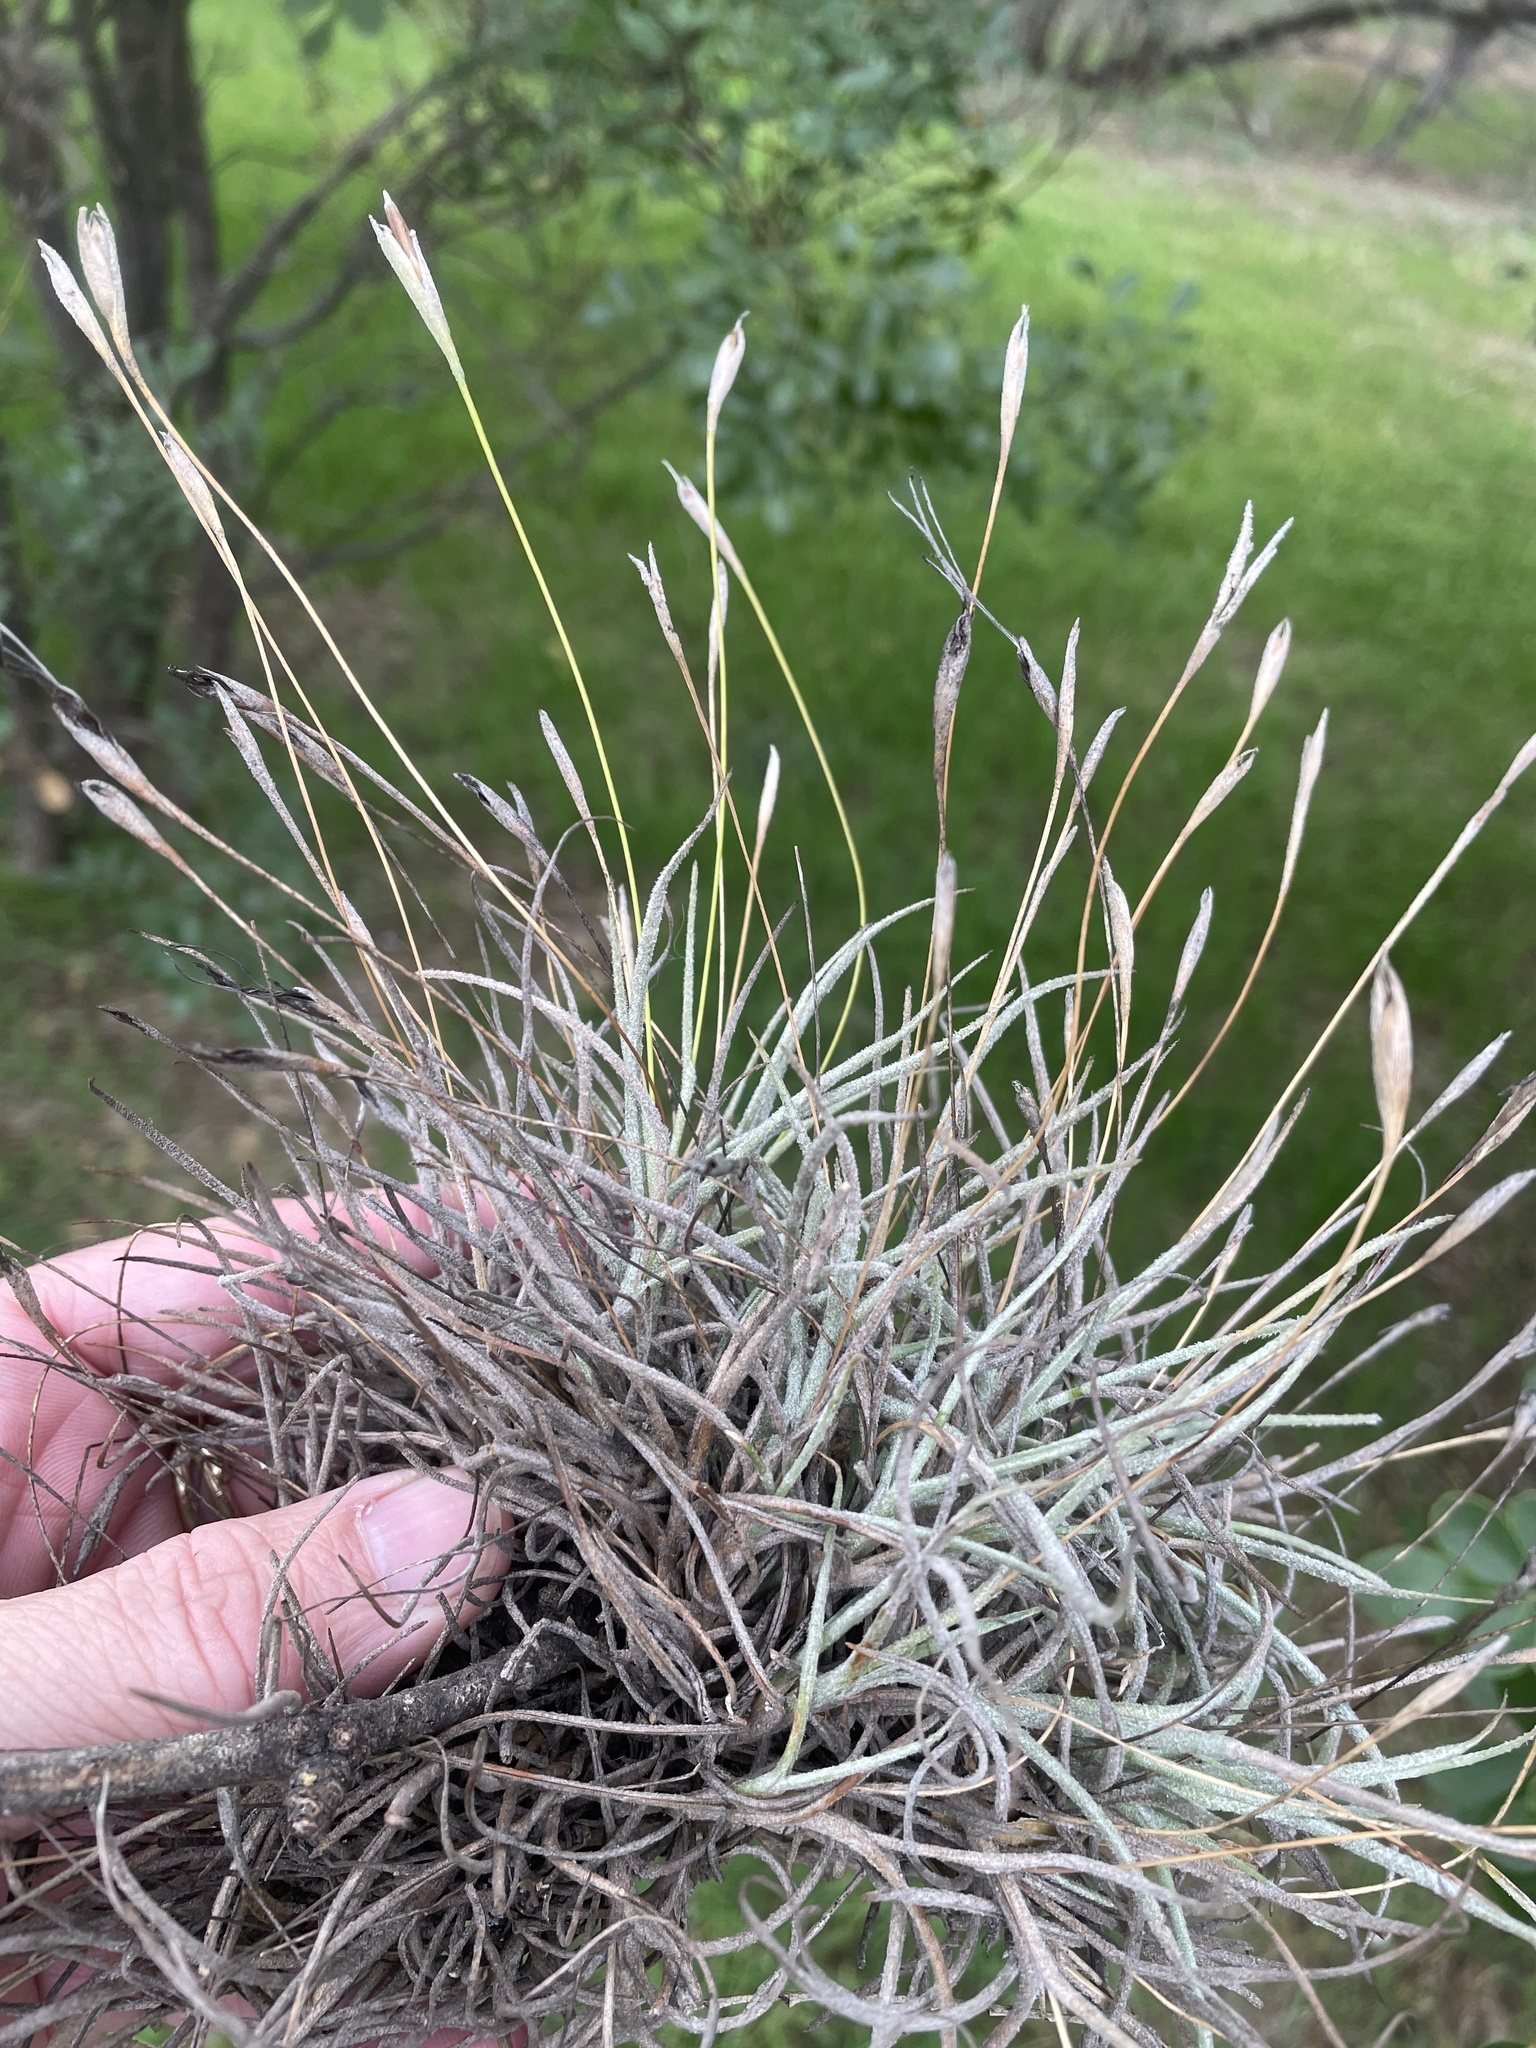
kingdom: Plantae
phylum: Tracheophyta
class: Liliopsida
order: Poales
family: Bromeliaceae
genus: Tillandsia
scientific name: Tillandsia recurvata
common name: Small ballmoss
